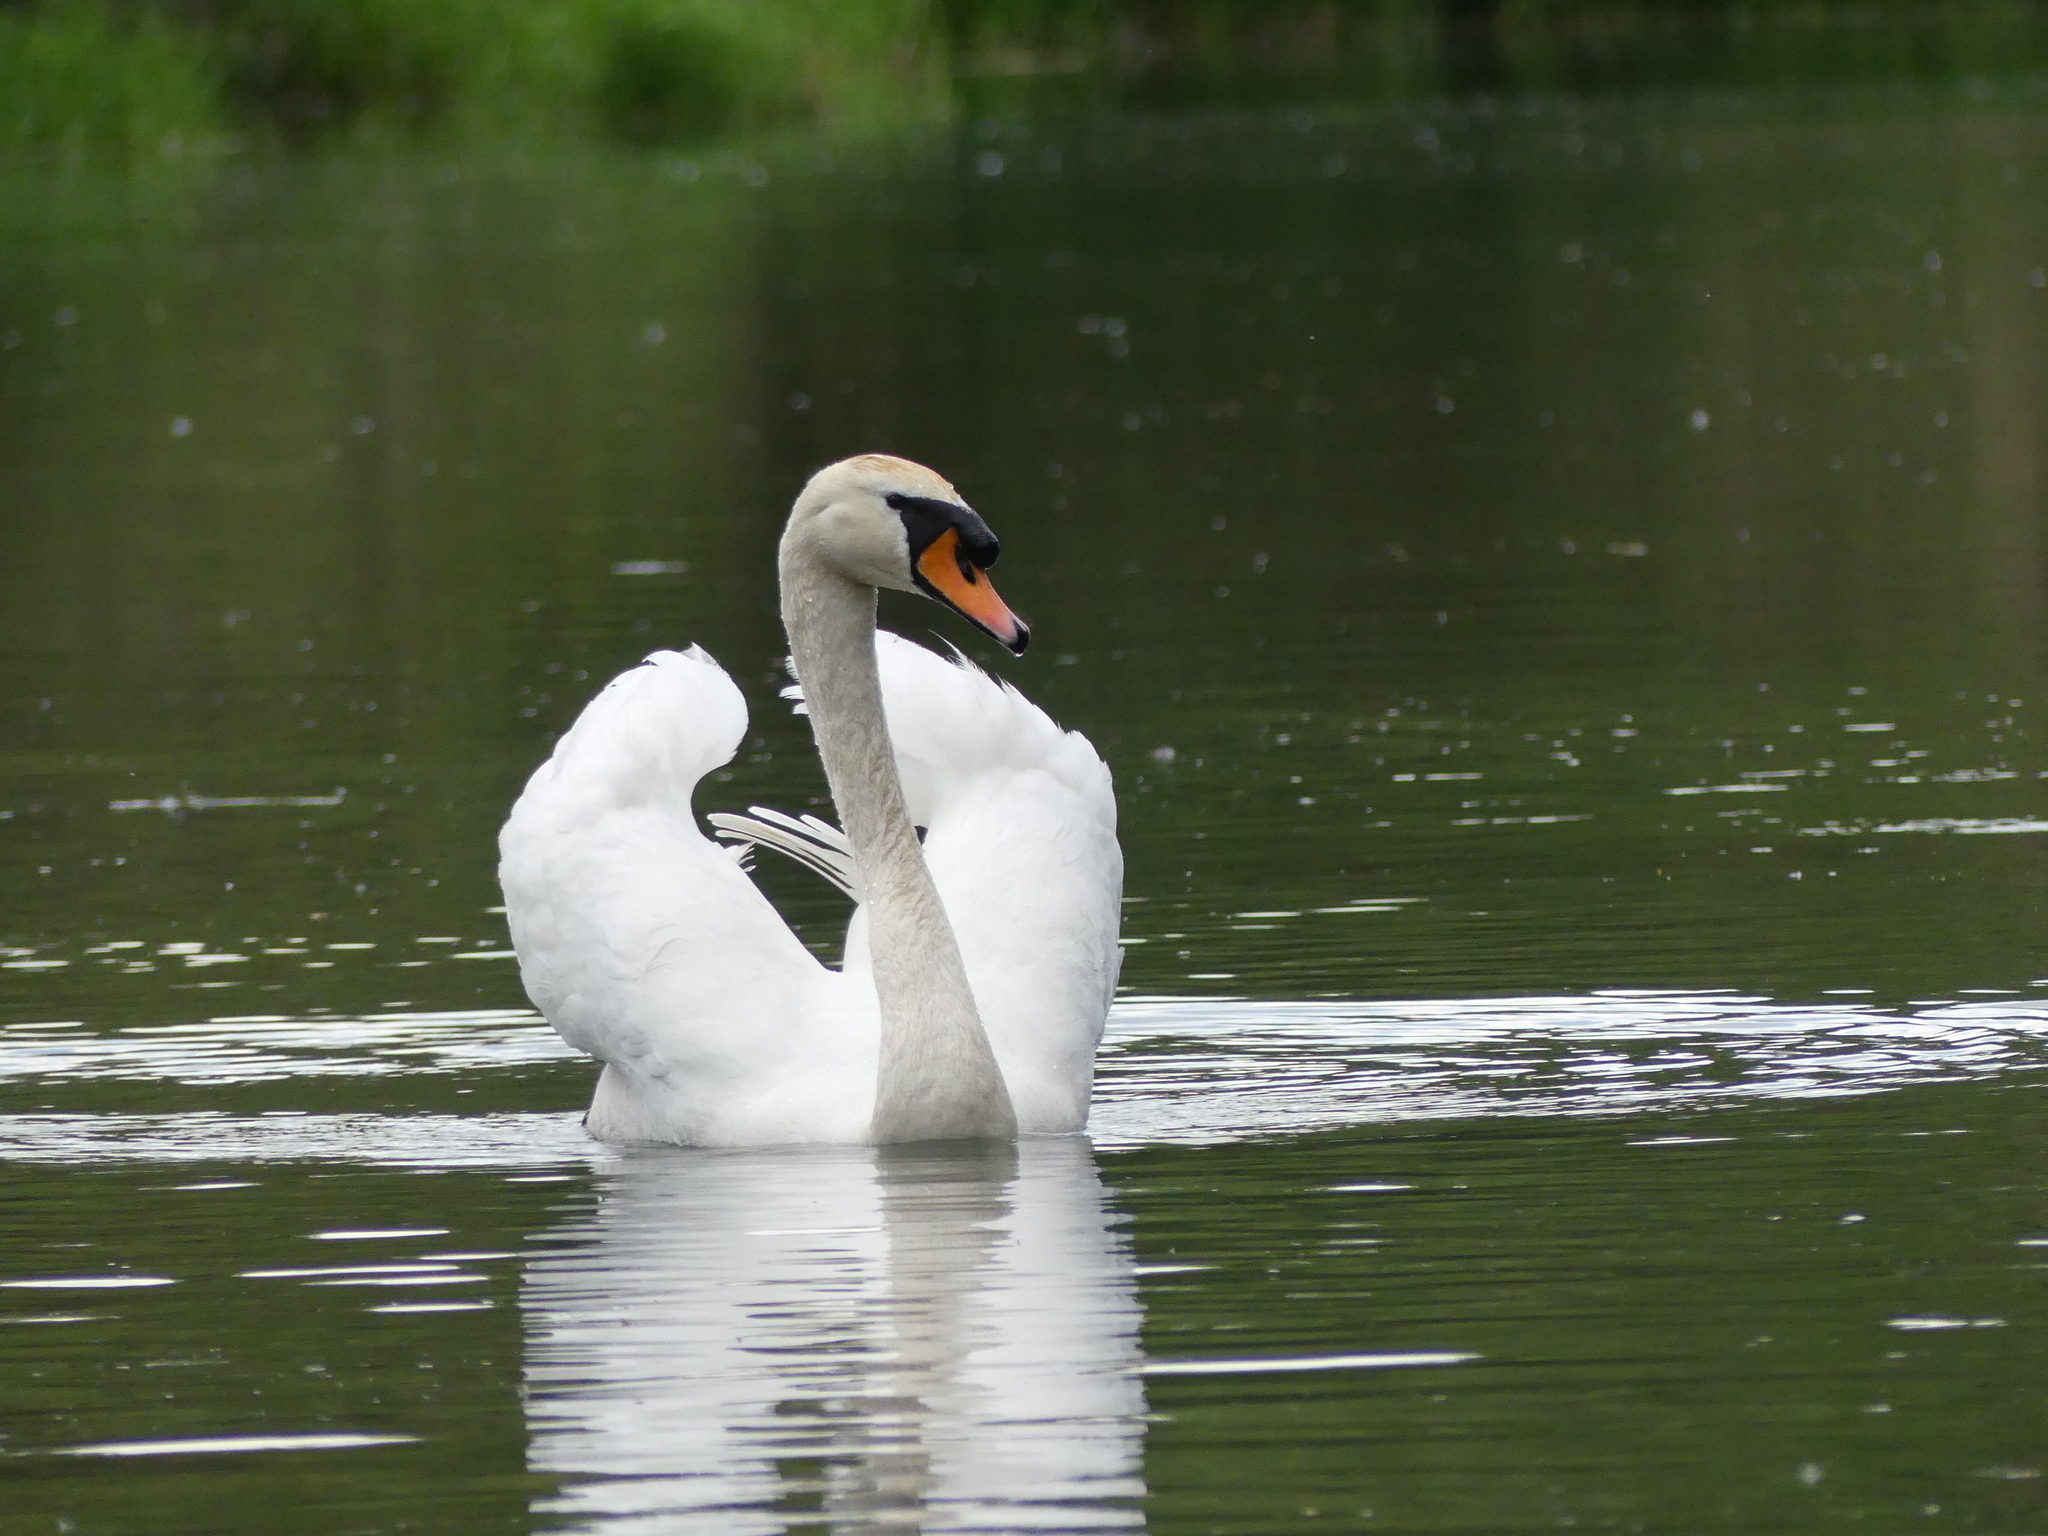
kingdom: Animalia
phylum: Chordata
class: Aves
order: Anseriformes
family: Anatidae
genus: Cygnus
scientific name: Cygnus olor
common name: Mute swan
